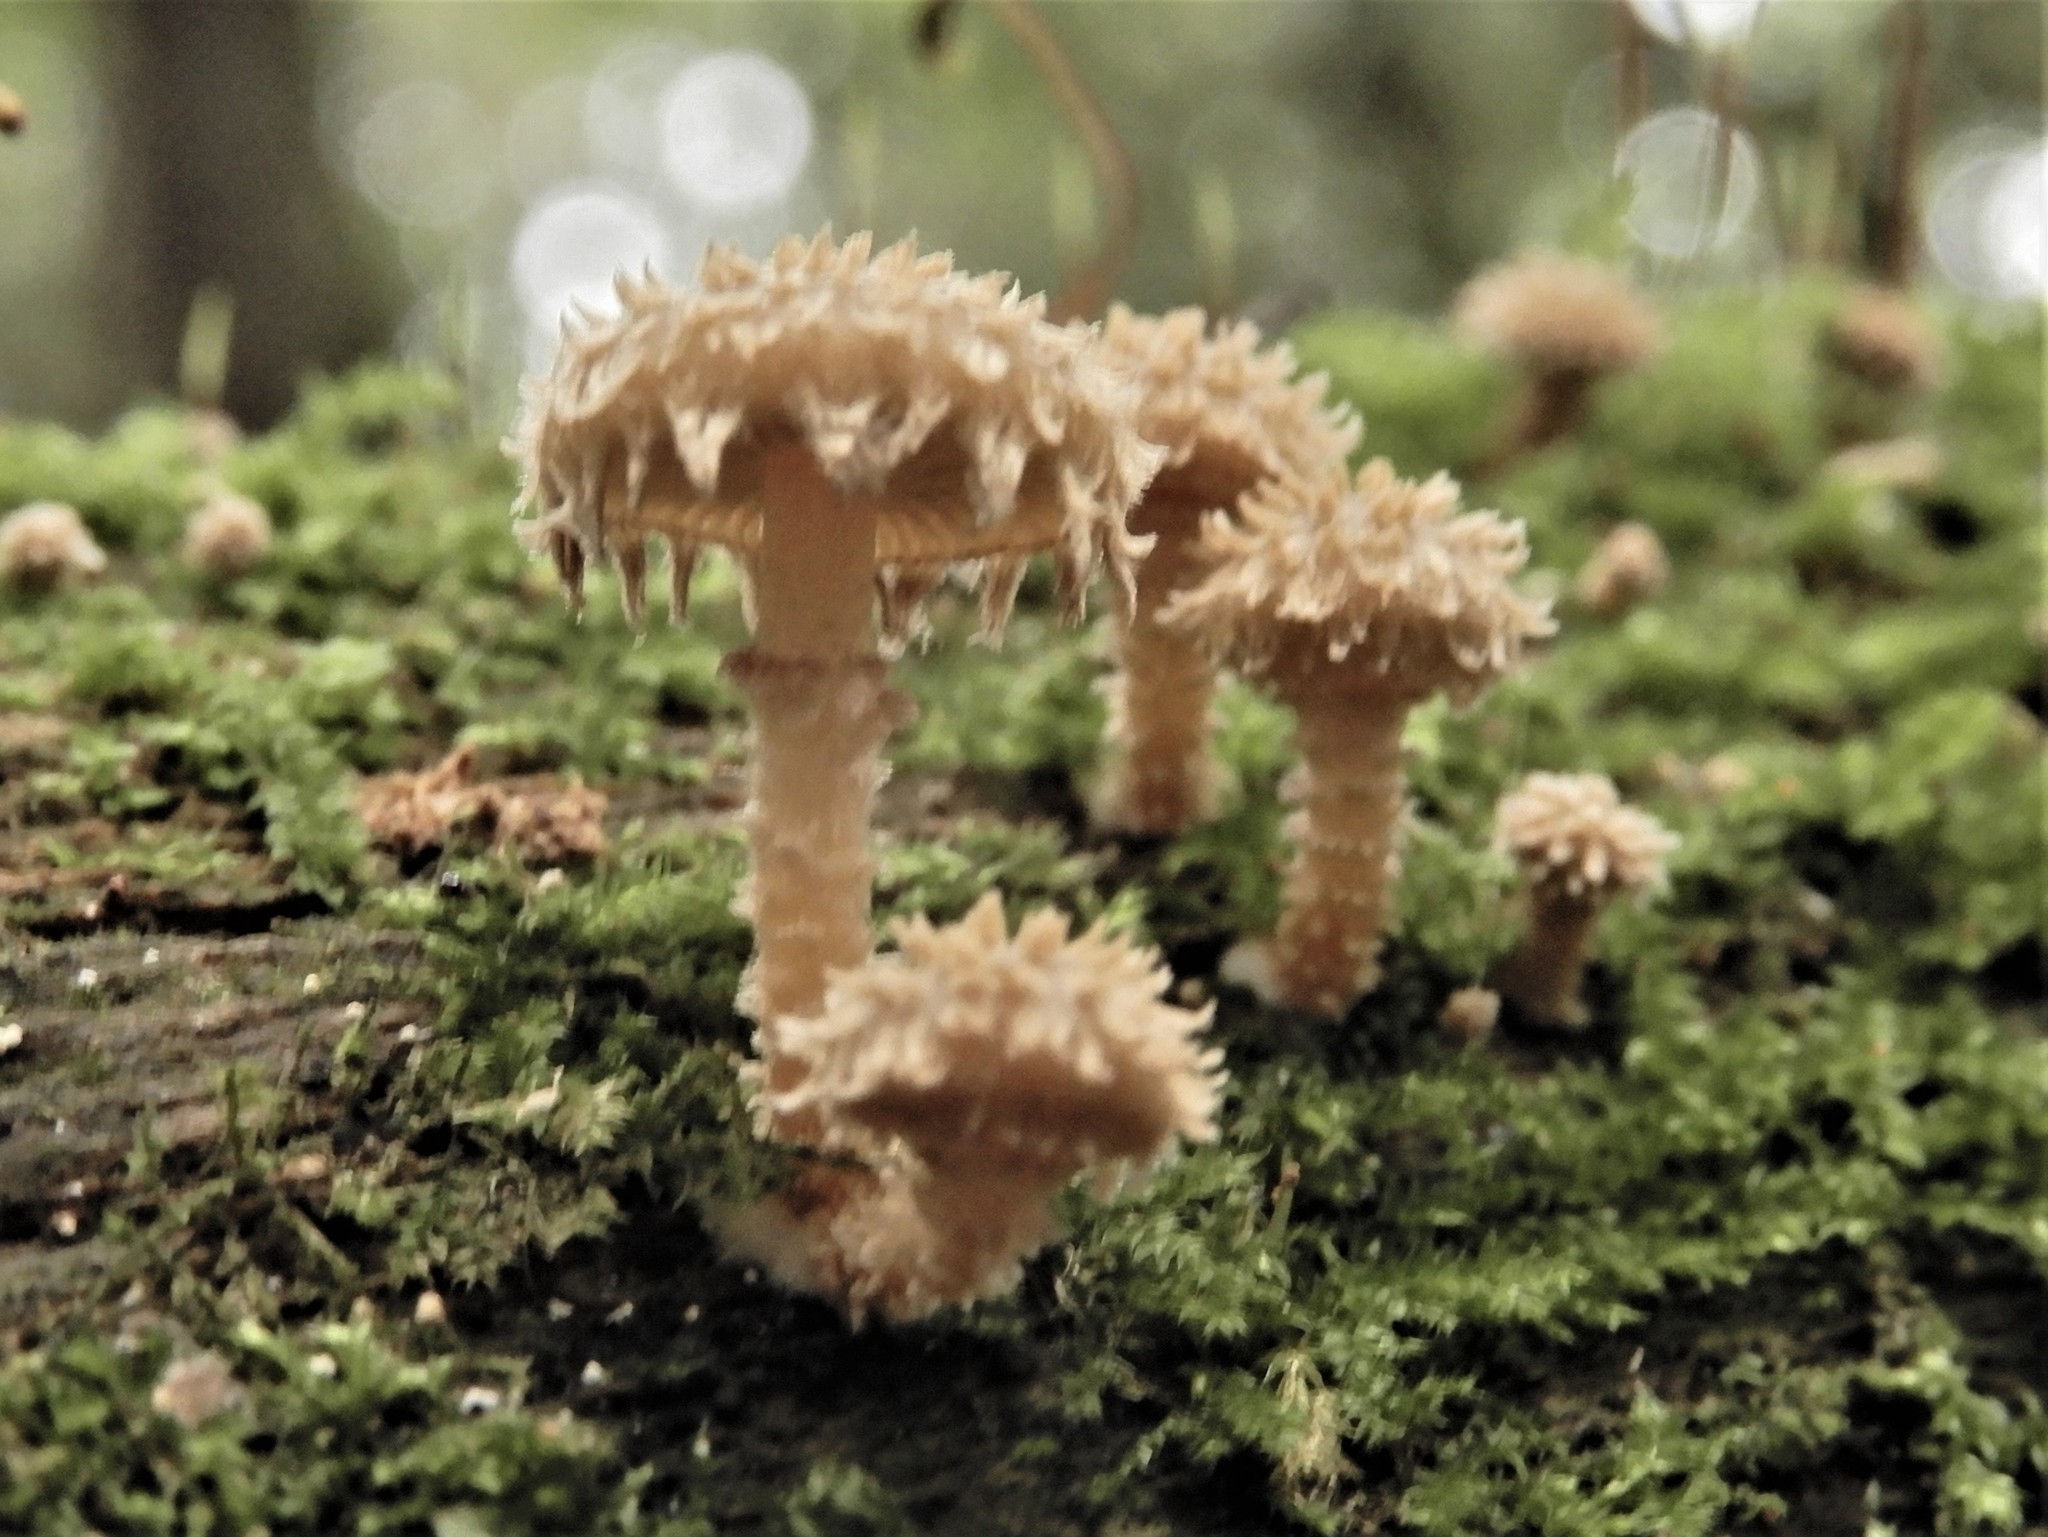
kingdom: Fungi
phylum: Basidiomycota
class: Agaricomycetes
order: Agaricales
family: Psathyrellaceae
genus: Psathyrella
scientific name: Psathyrella echinata
